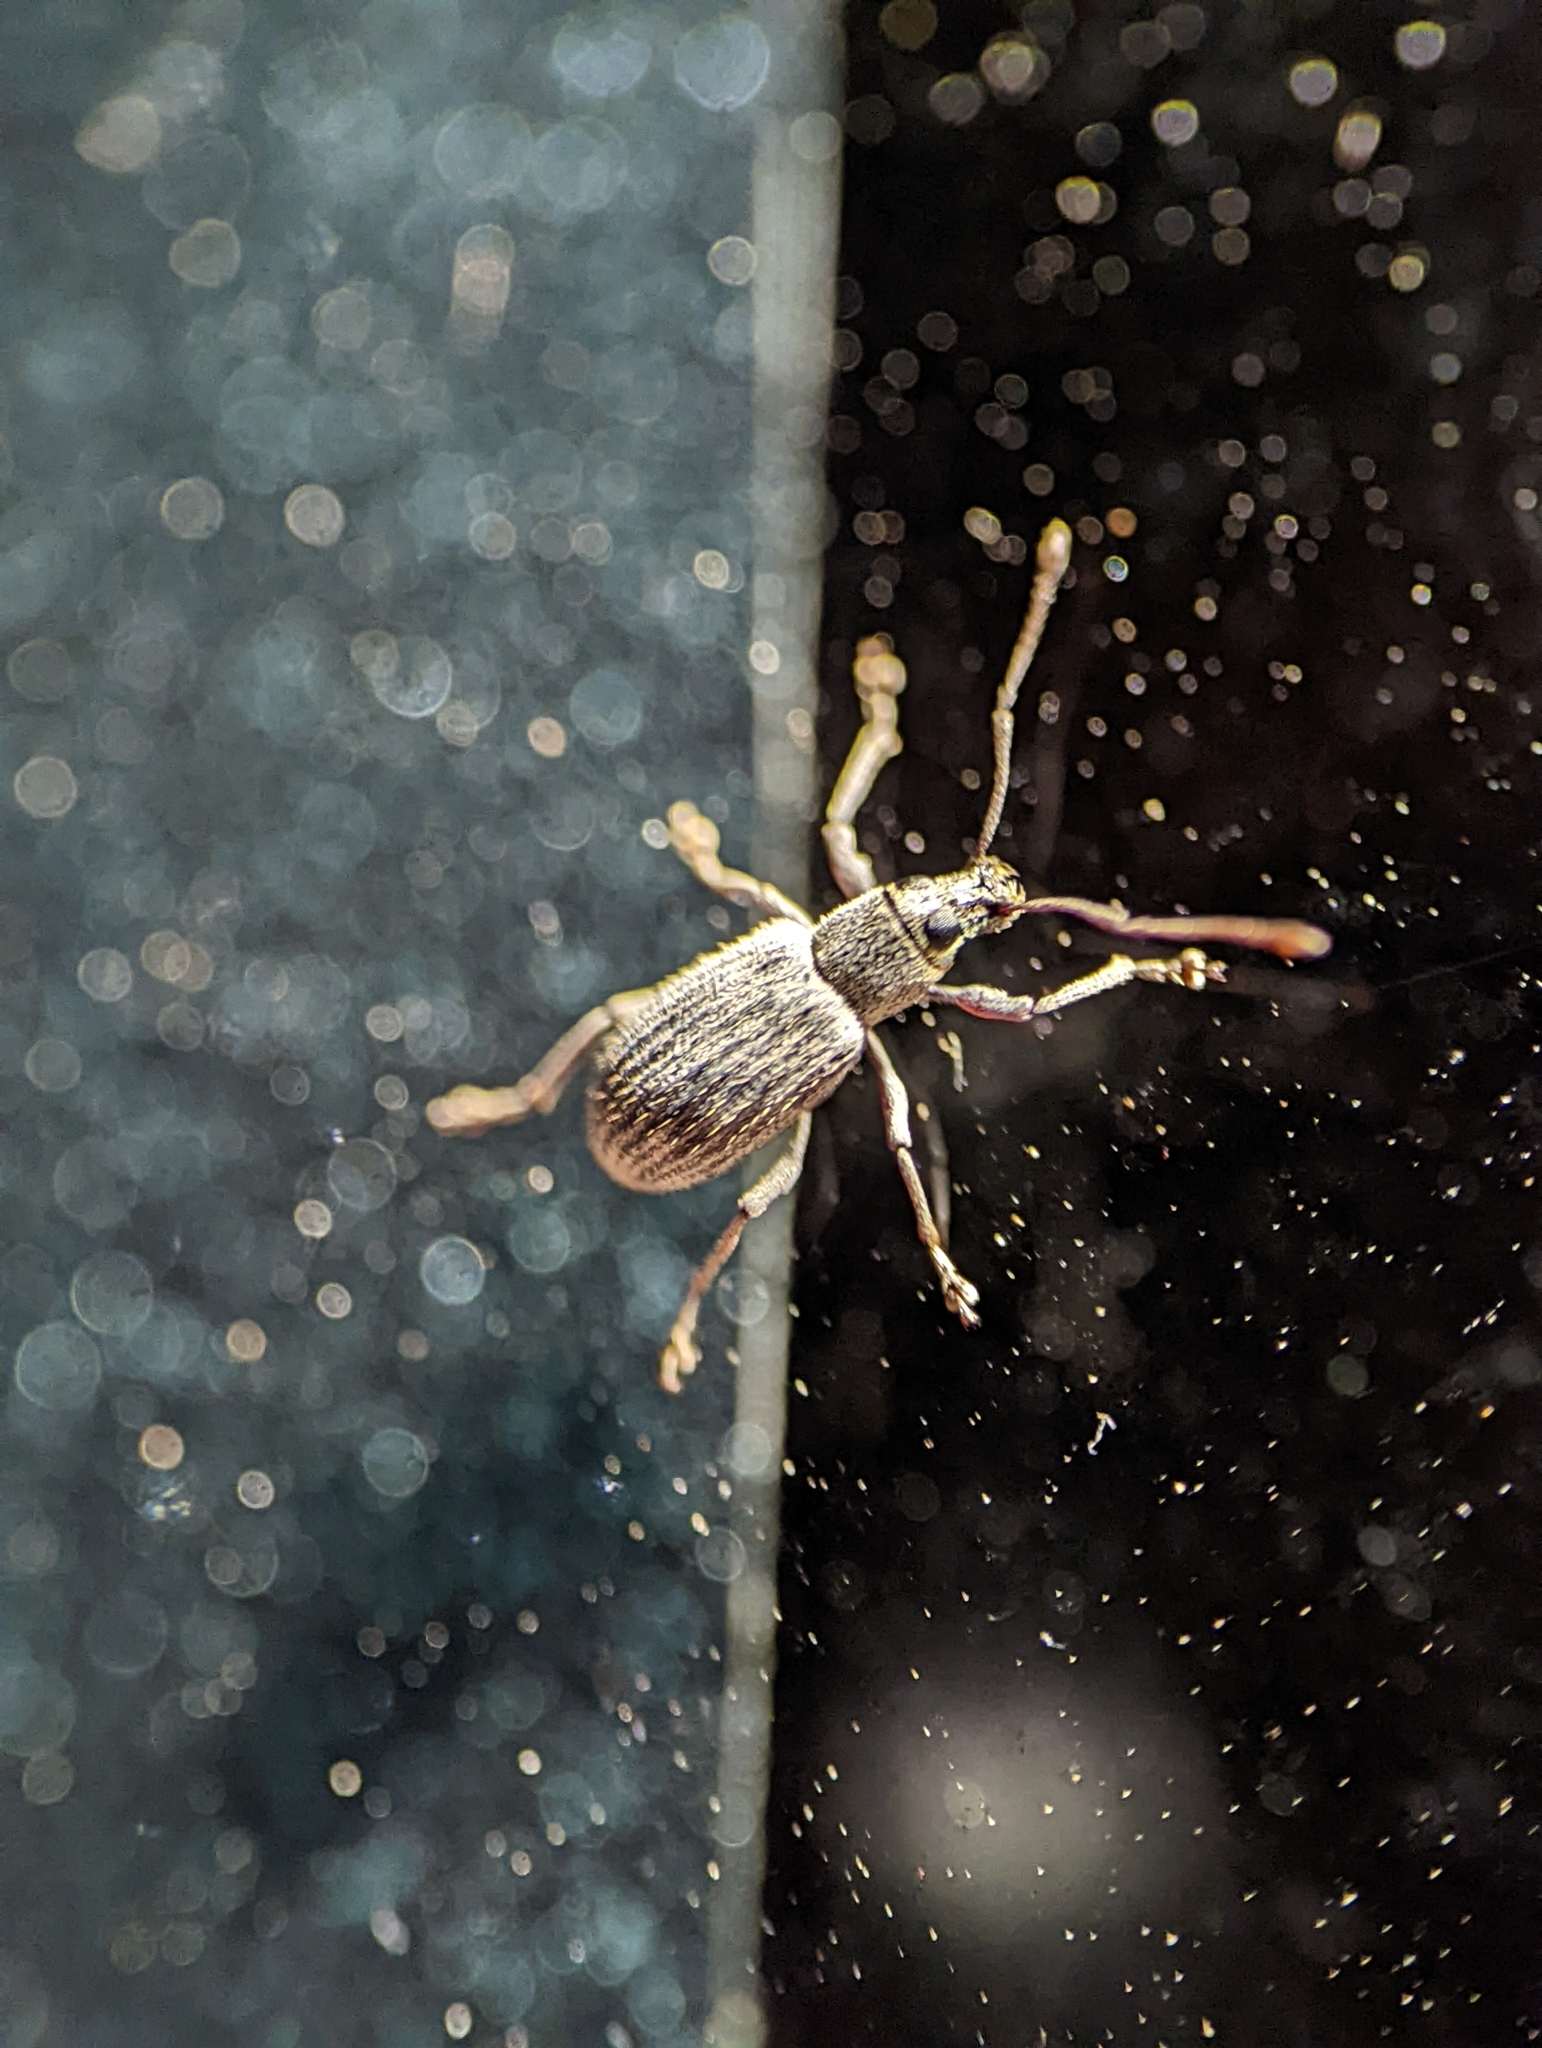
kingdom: Animalia
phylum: Arthropoda
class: Insecta
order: Coleoptera
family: Curculionidae
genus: Cyrtepistomus
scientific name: Cyrtepistomus castaneus
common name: Weevil
